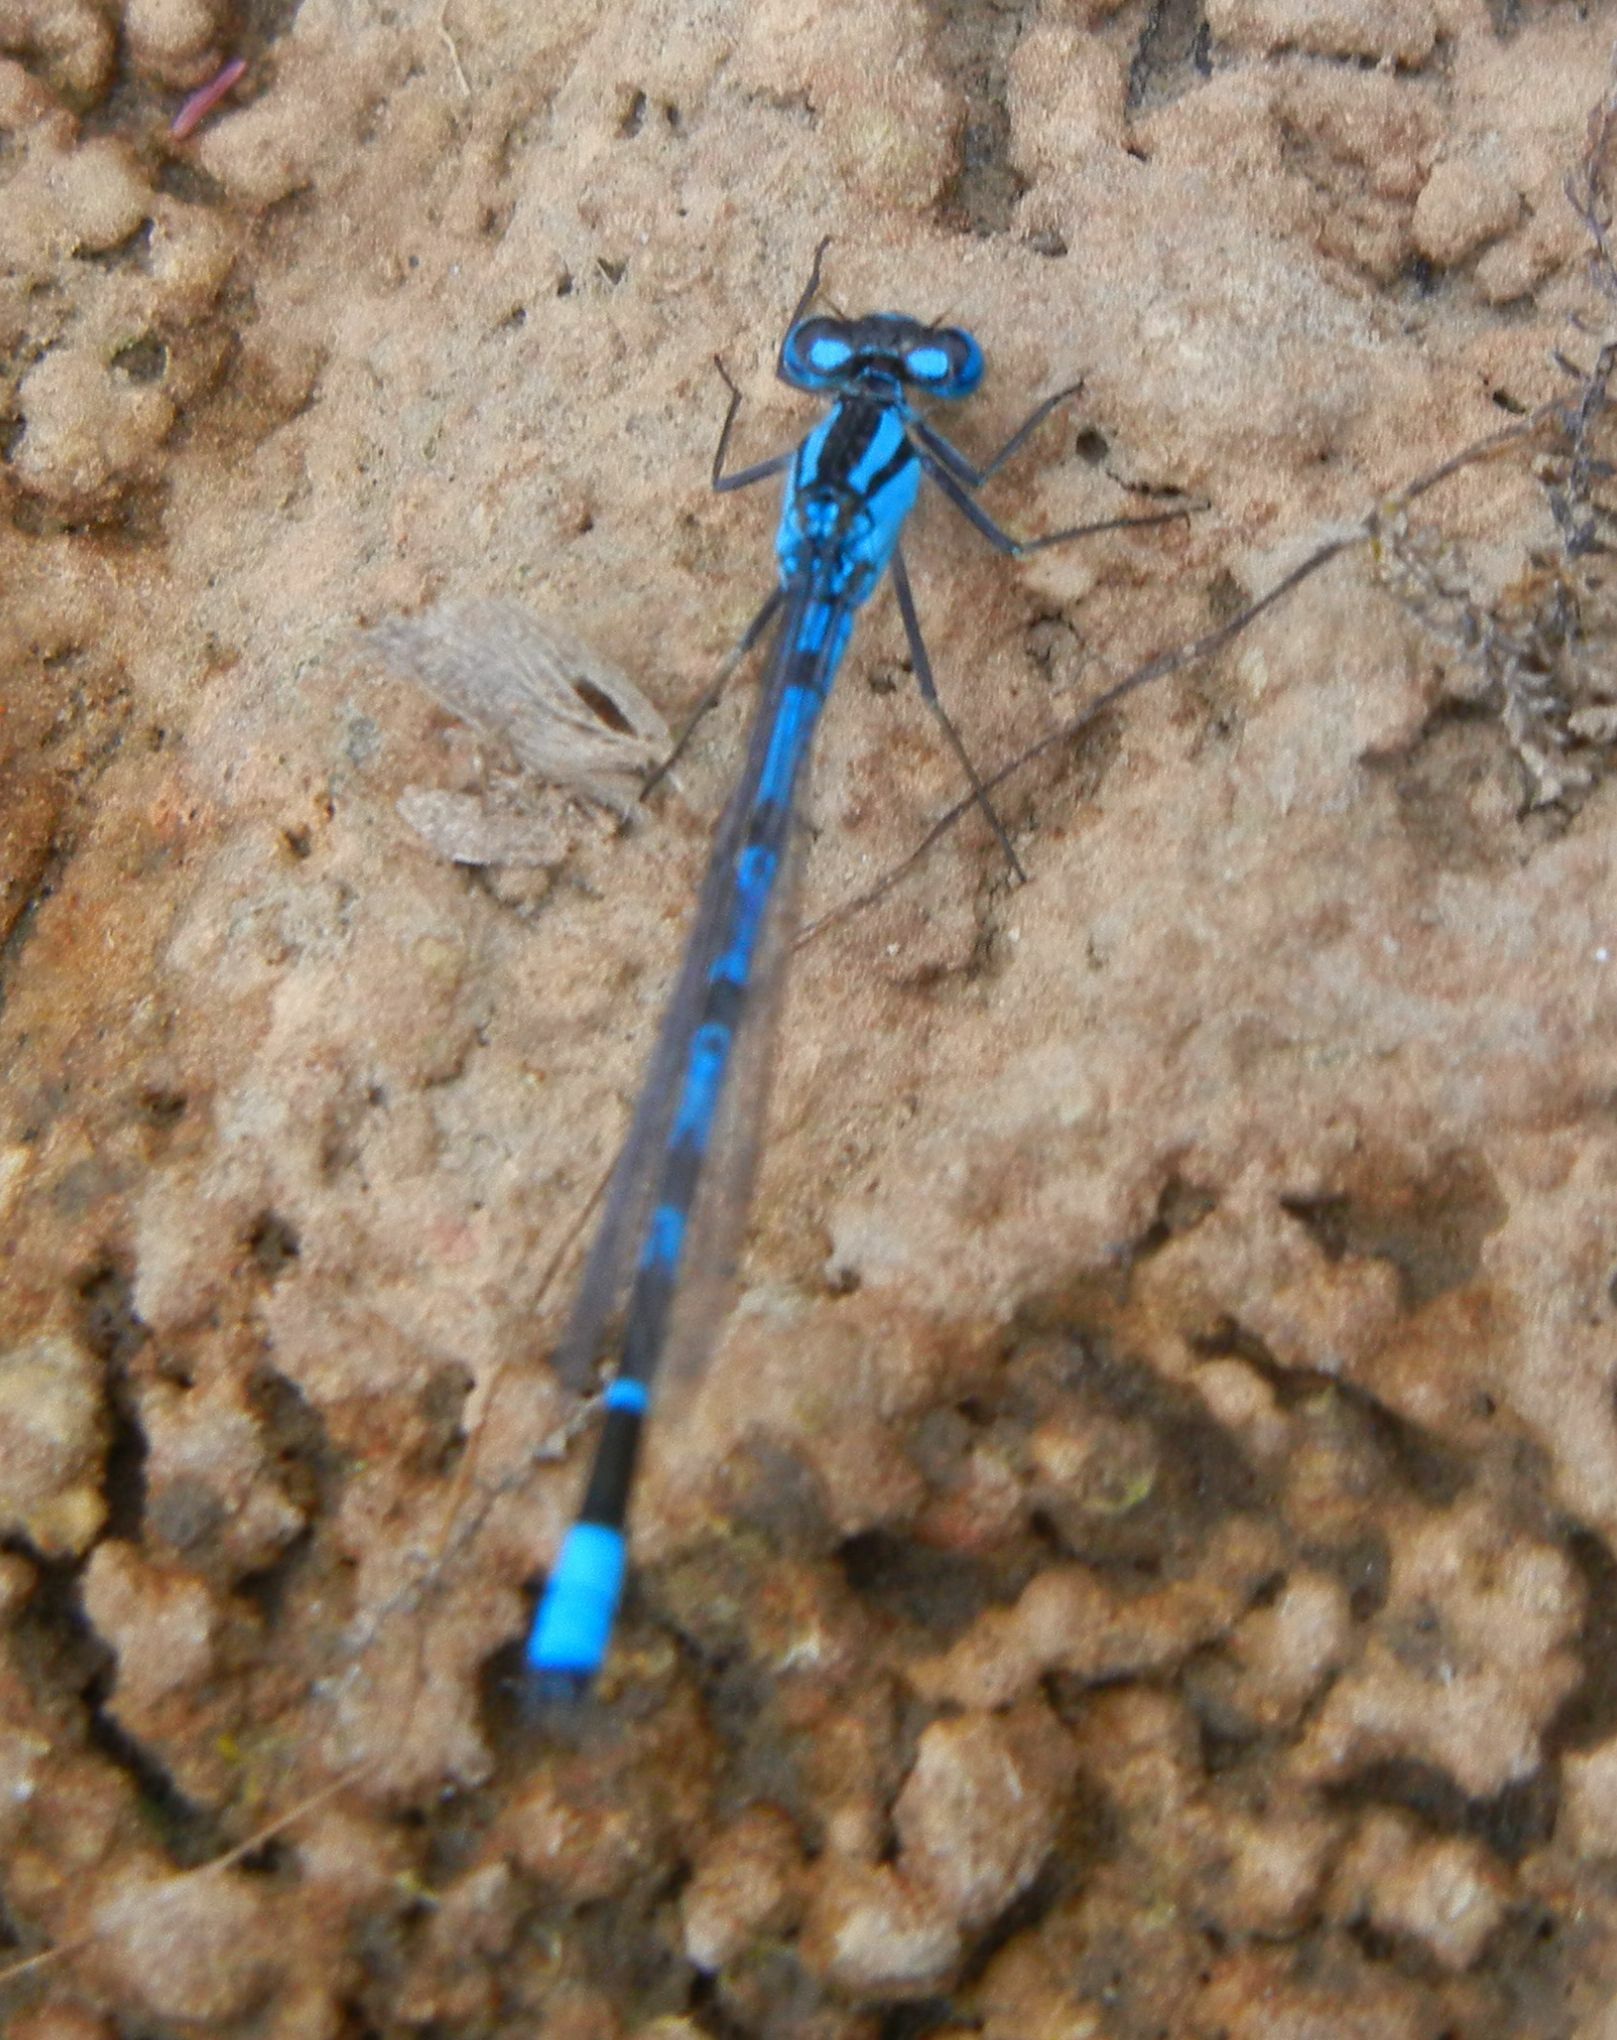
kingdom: Animalia
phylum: Arthropoda
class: Insecta
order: Odonata
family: Coenagrionidae
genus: Enallagma
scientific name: Enallagma cyathigerum
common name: Common blue damselfly
